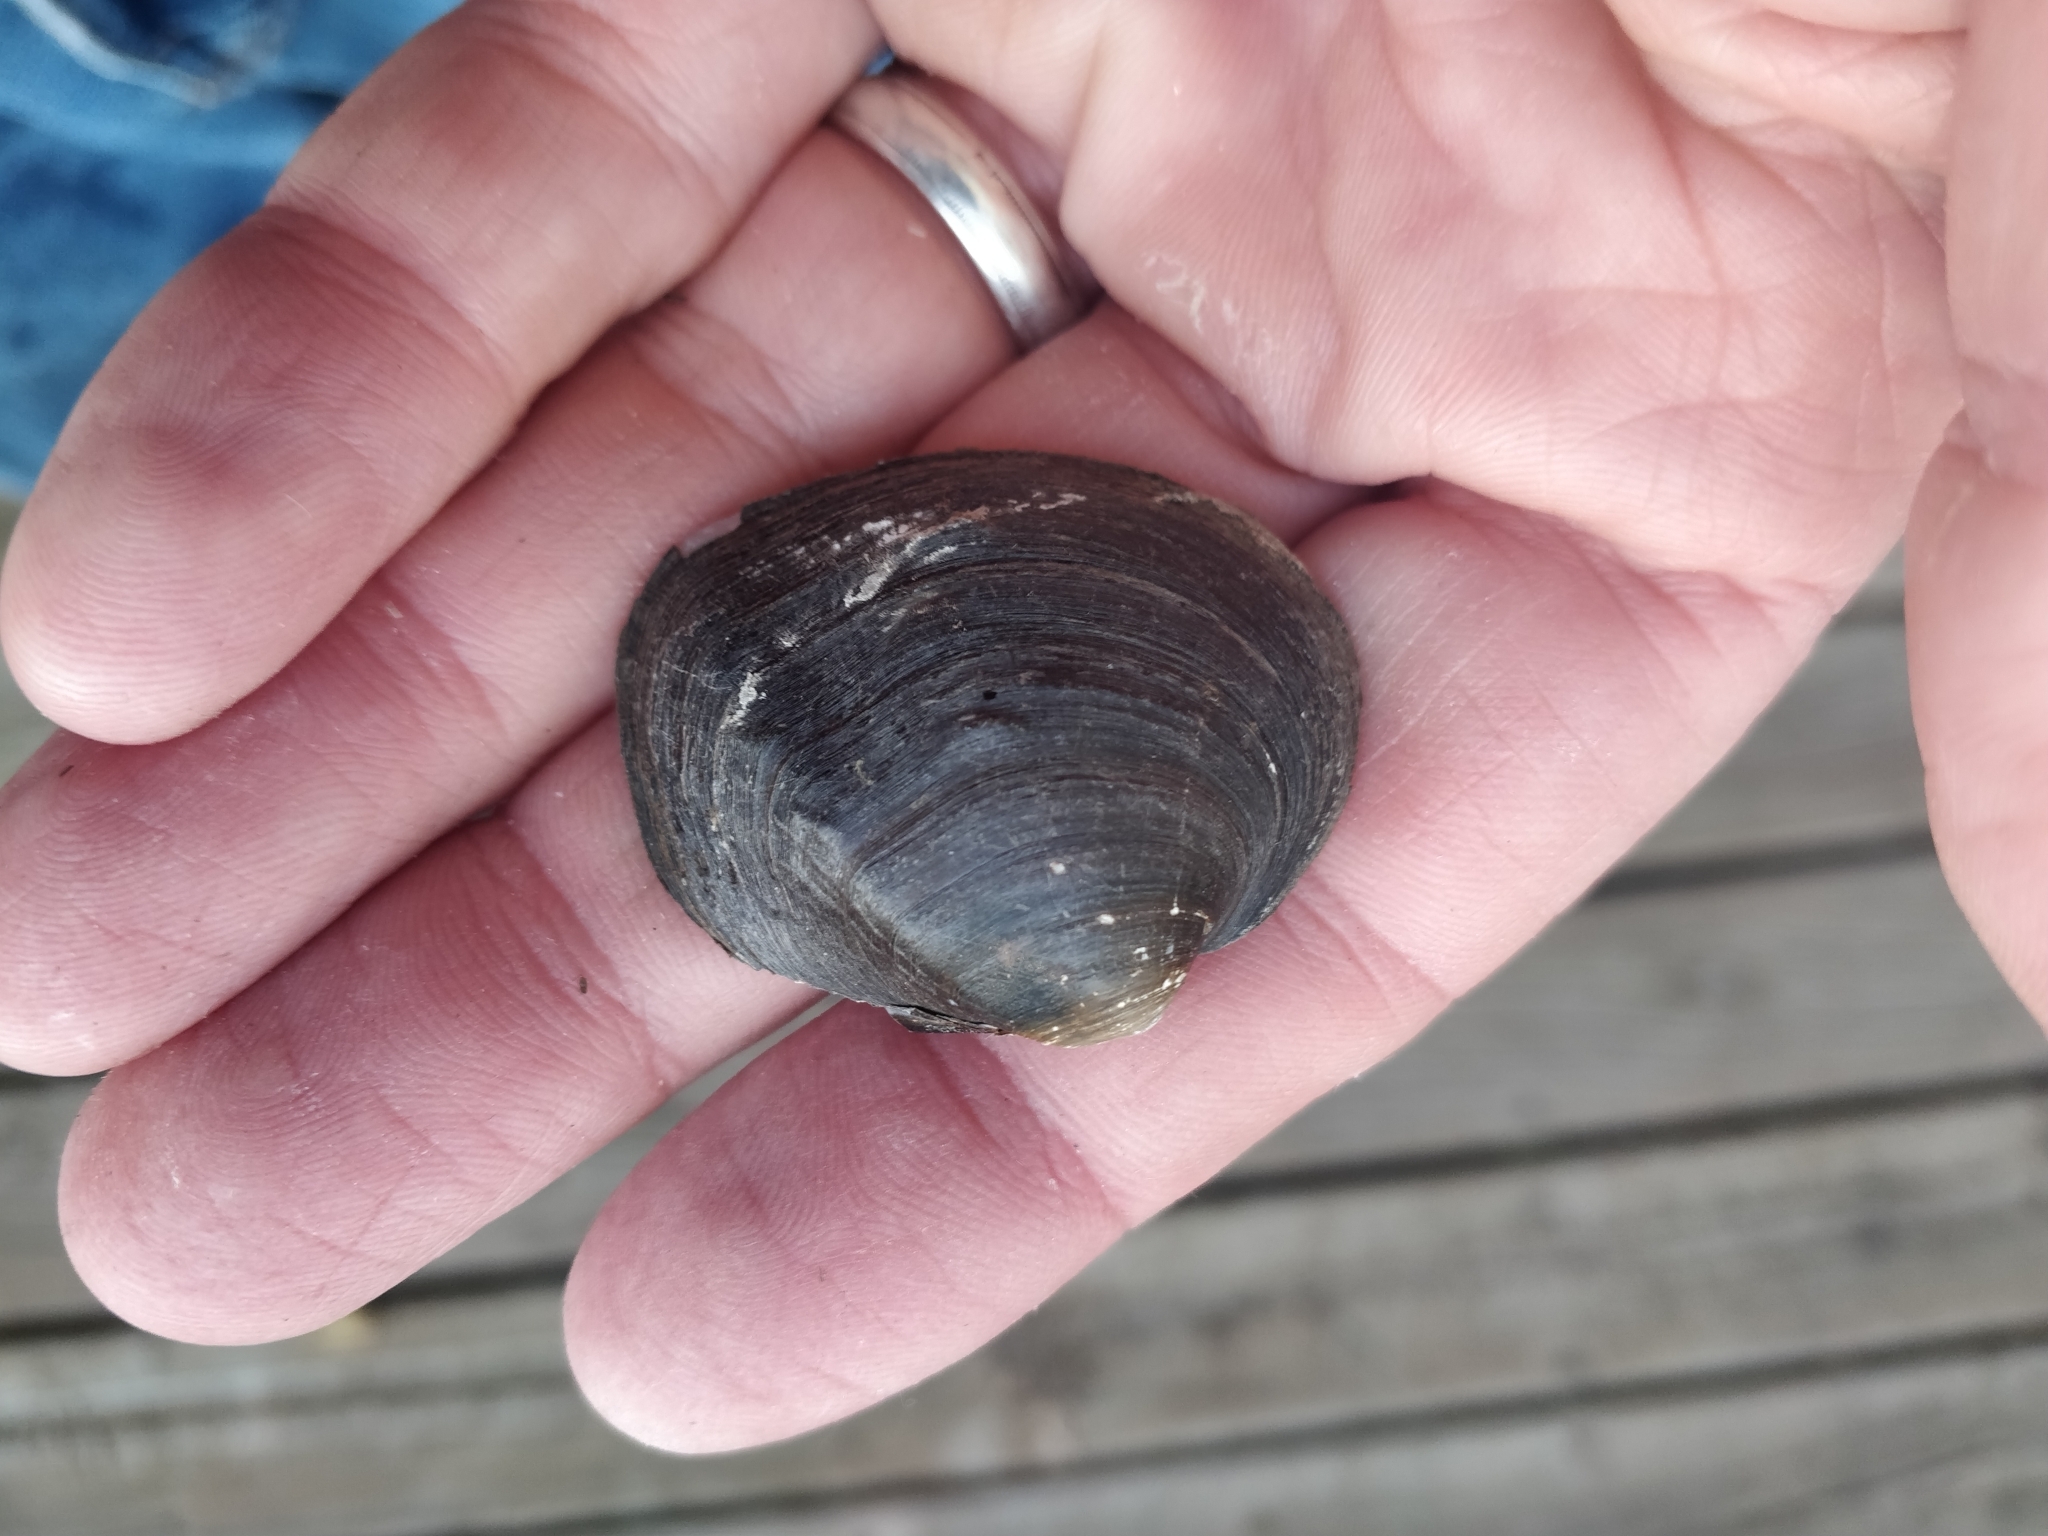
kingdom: Animalia
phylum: Mollusca
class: Bivalvia
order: Unionida
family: Unionidae
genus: Cyclonaias
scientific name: Cyclonaias pustulosa
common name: Pimpleback
